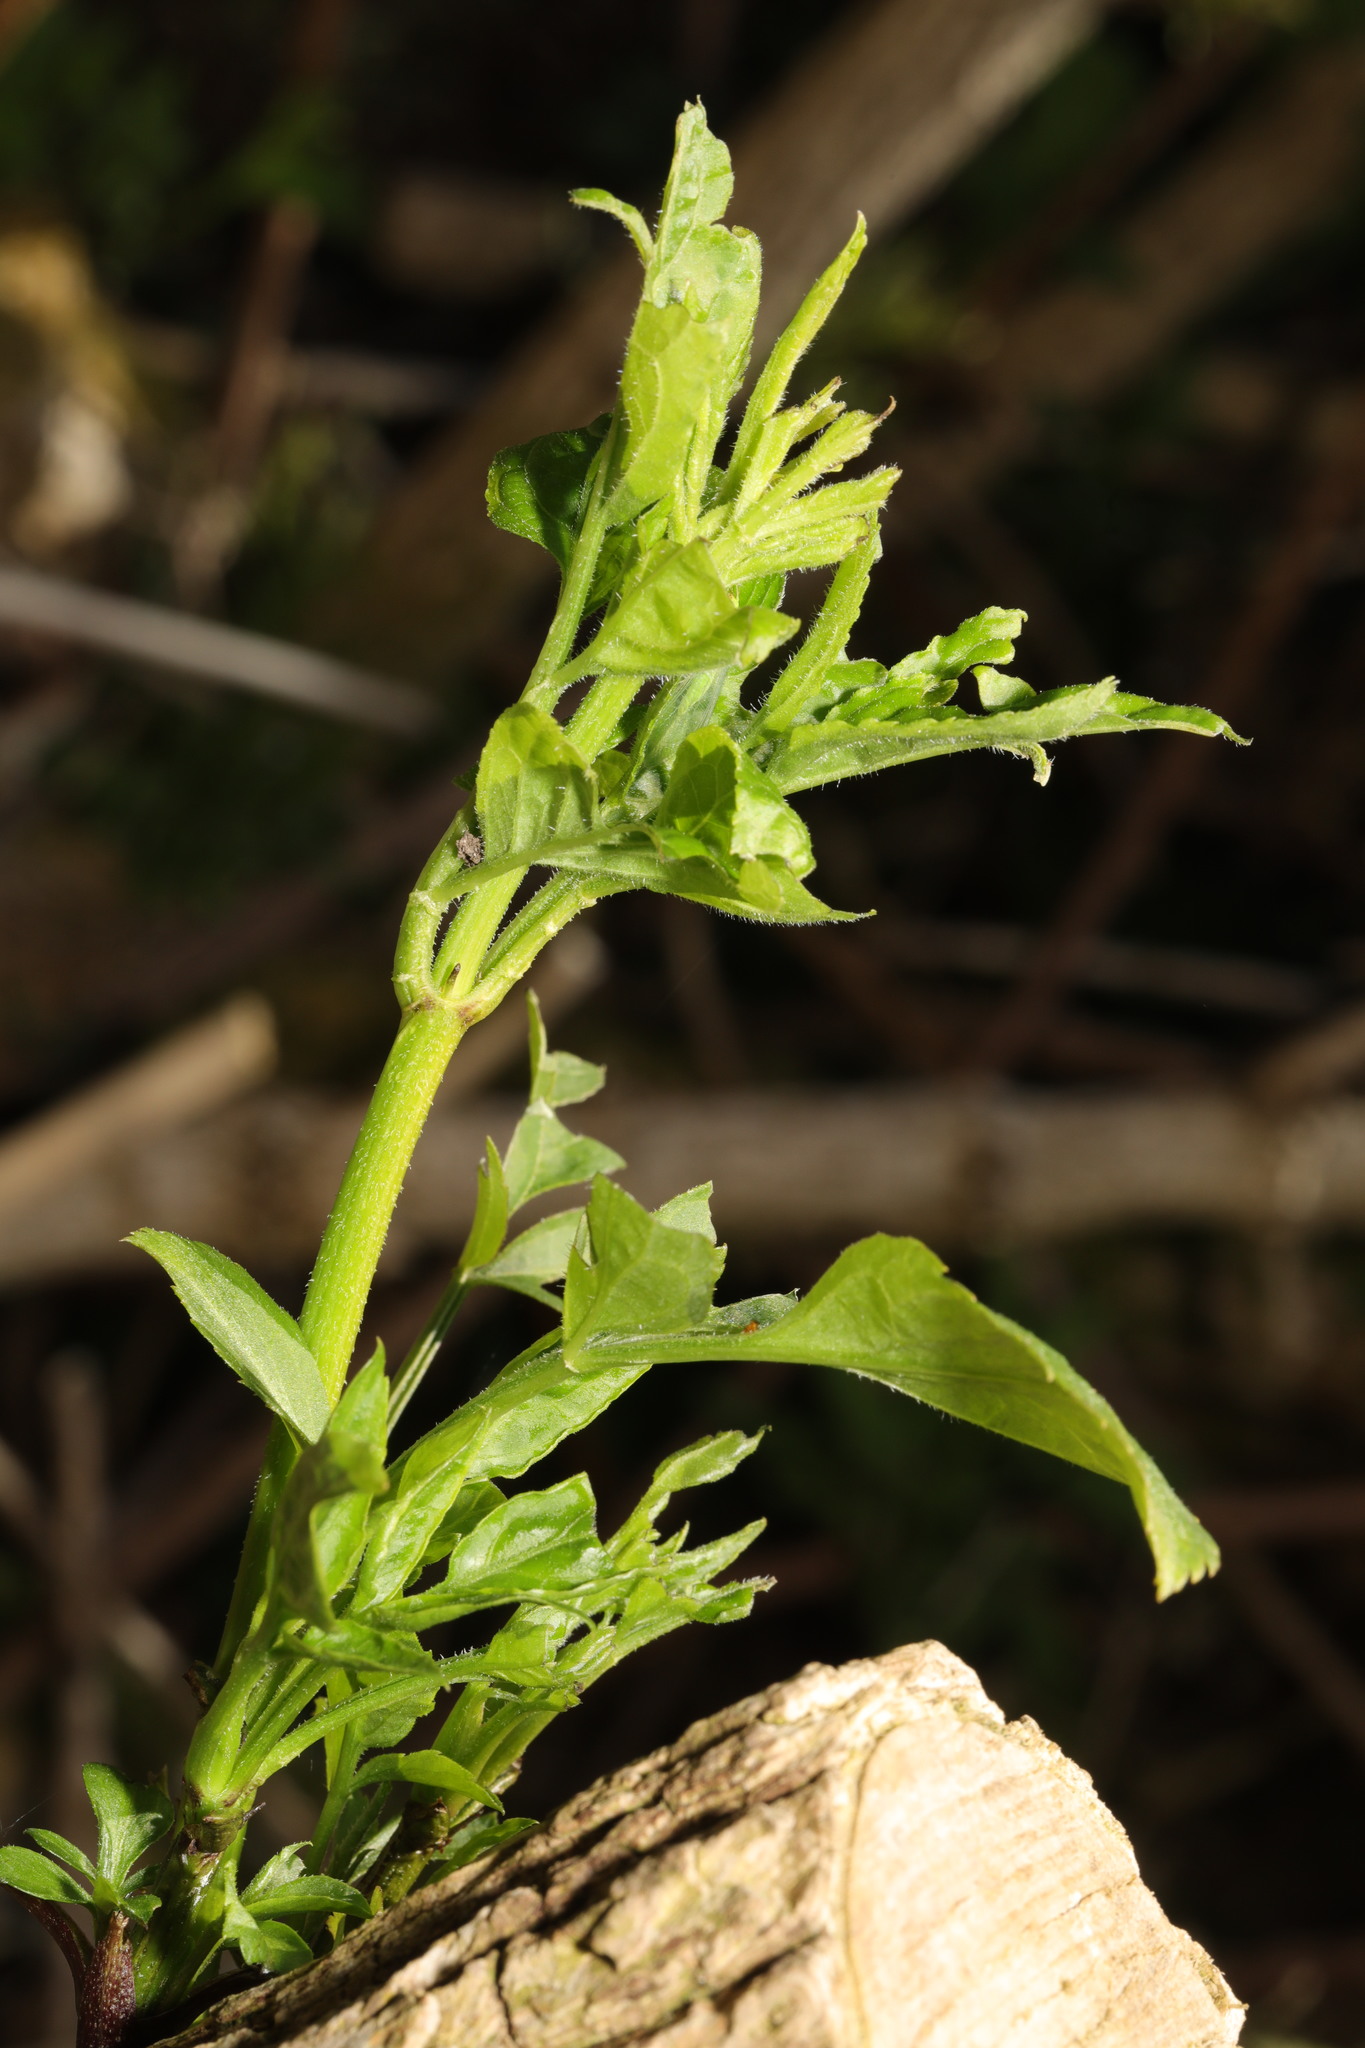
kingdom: Plantae
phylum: Tracheophyta
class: Magnoliopsida
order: Dipsacales
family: Viburnaceae
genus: Sambucus
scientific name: Sambucus nigra
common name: Elder
